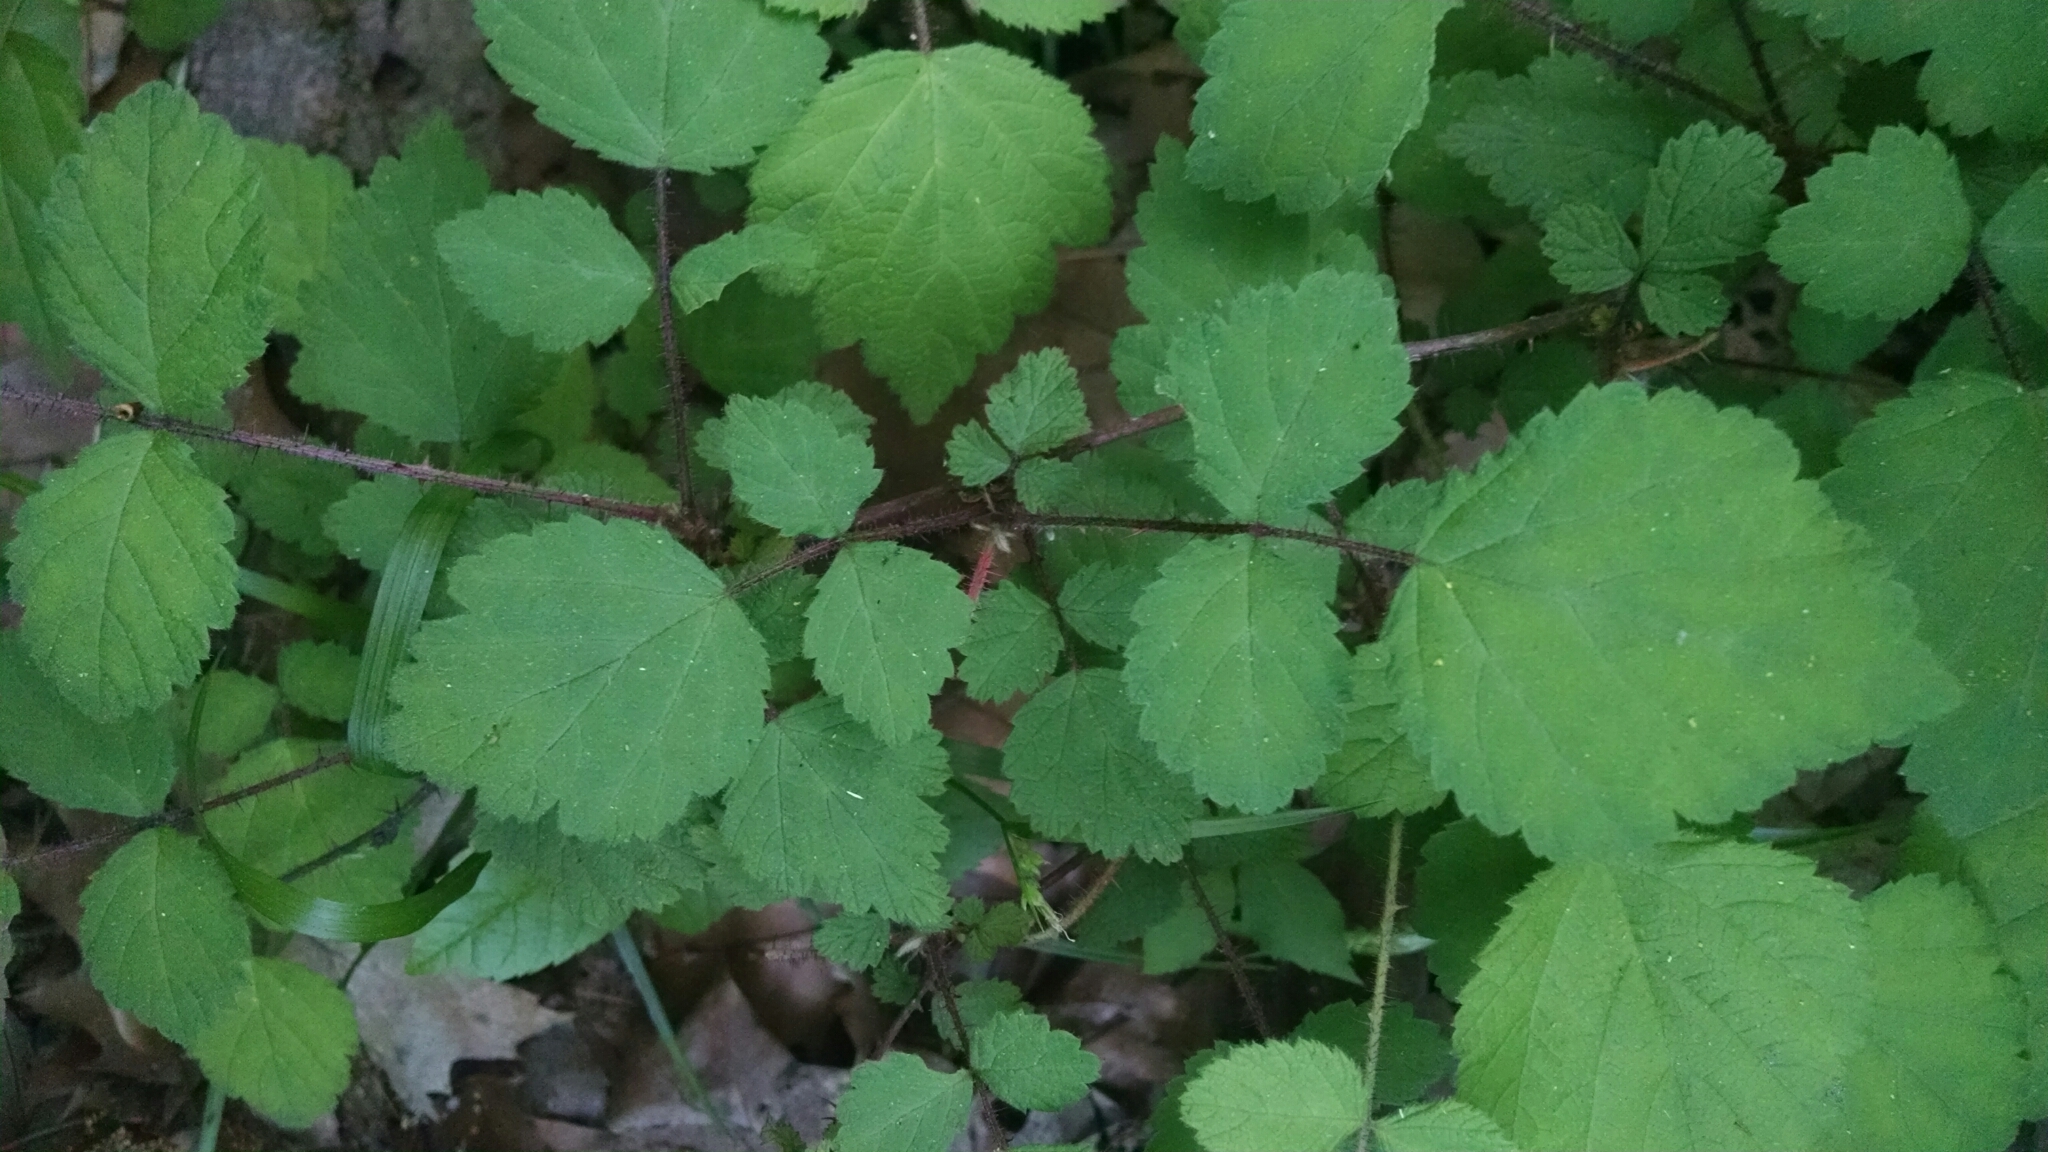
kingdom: Plantae
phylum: Tracheophyta
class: Magnoliopsida
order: Rosales
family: Rosaceae
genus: Rubus
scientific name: Rubus phoenicolasius
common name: Japanese wineberry
